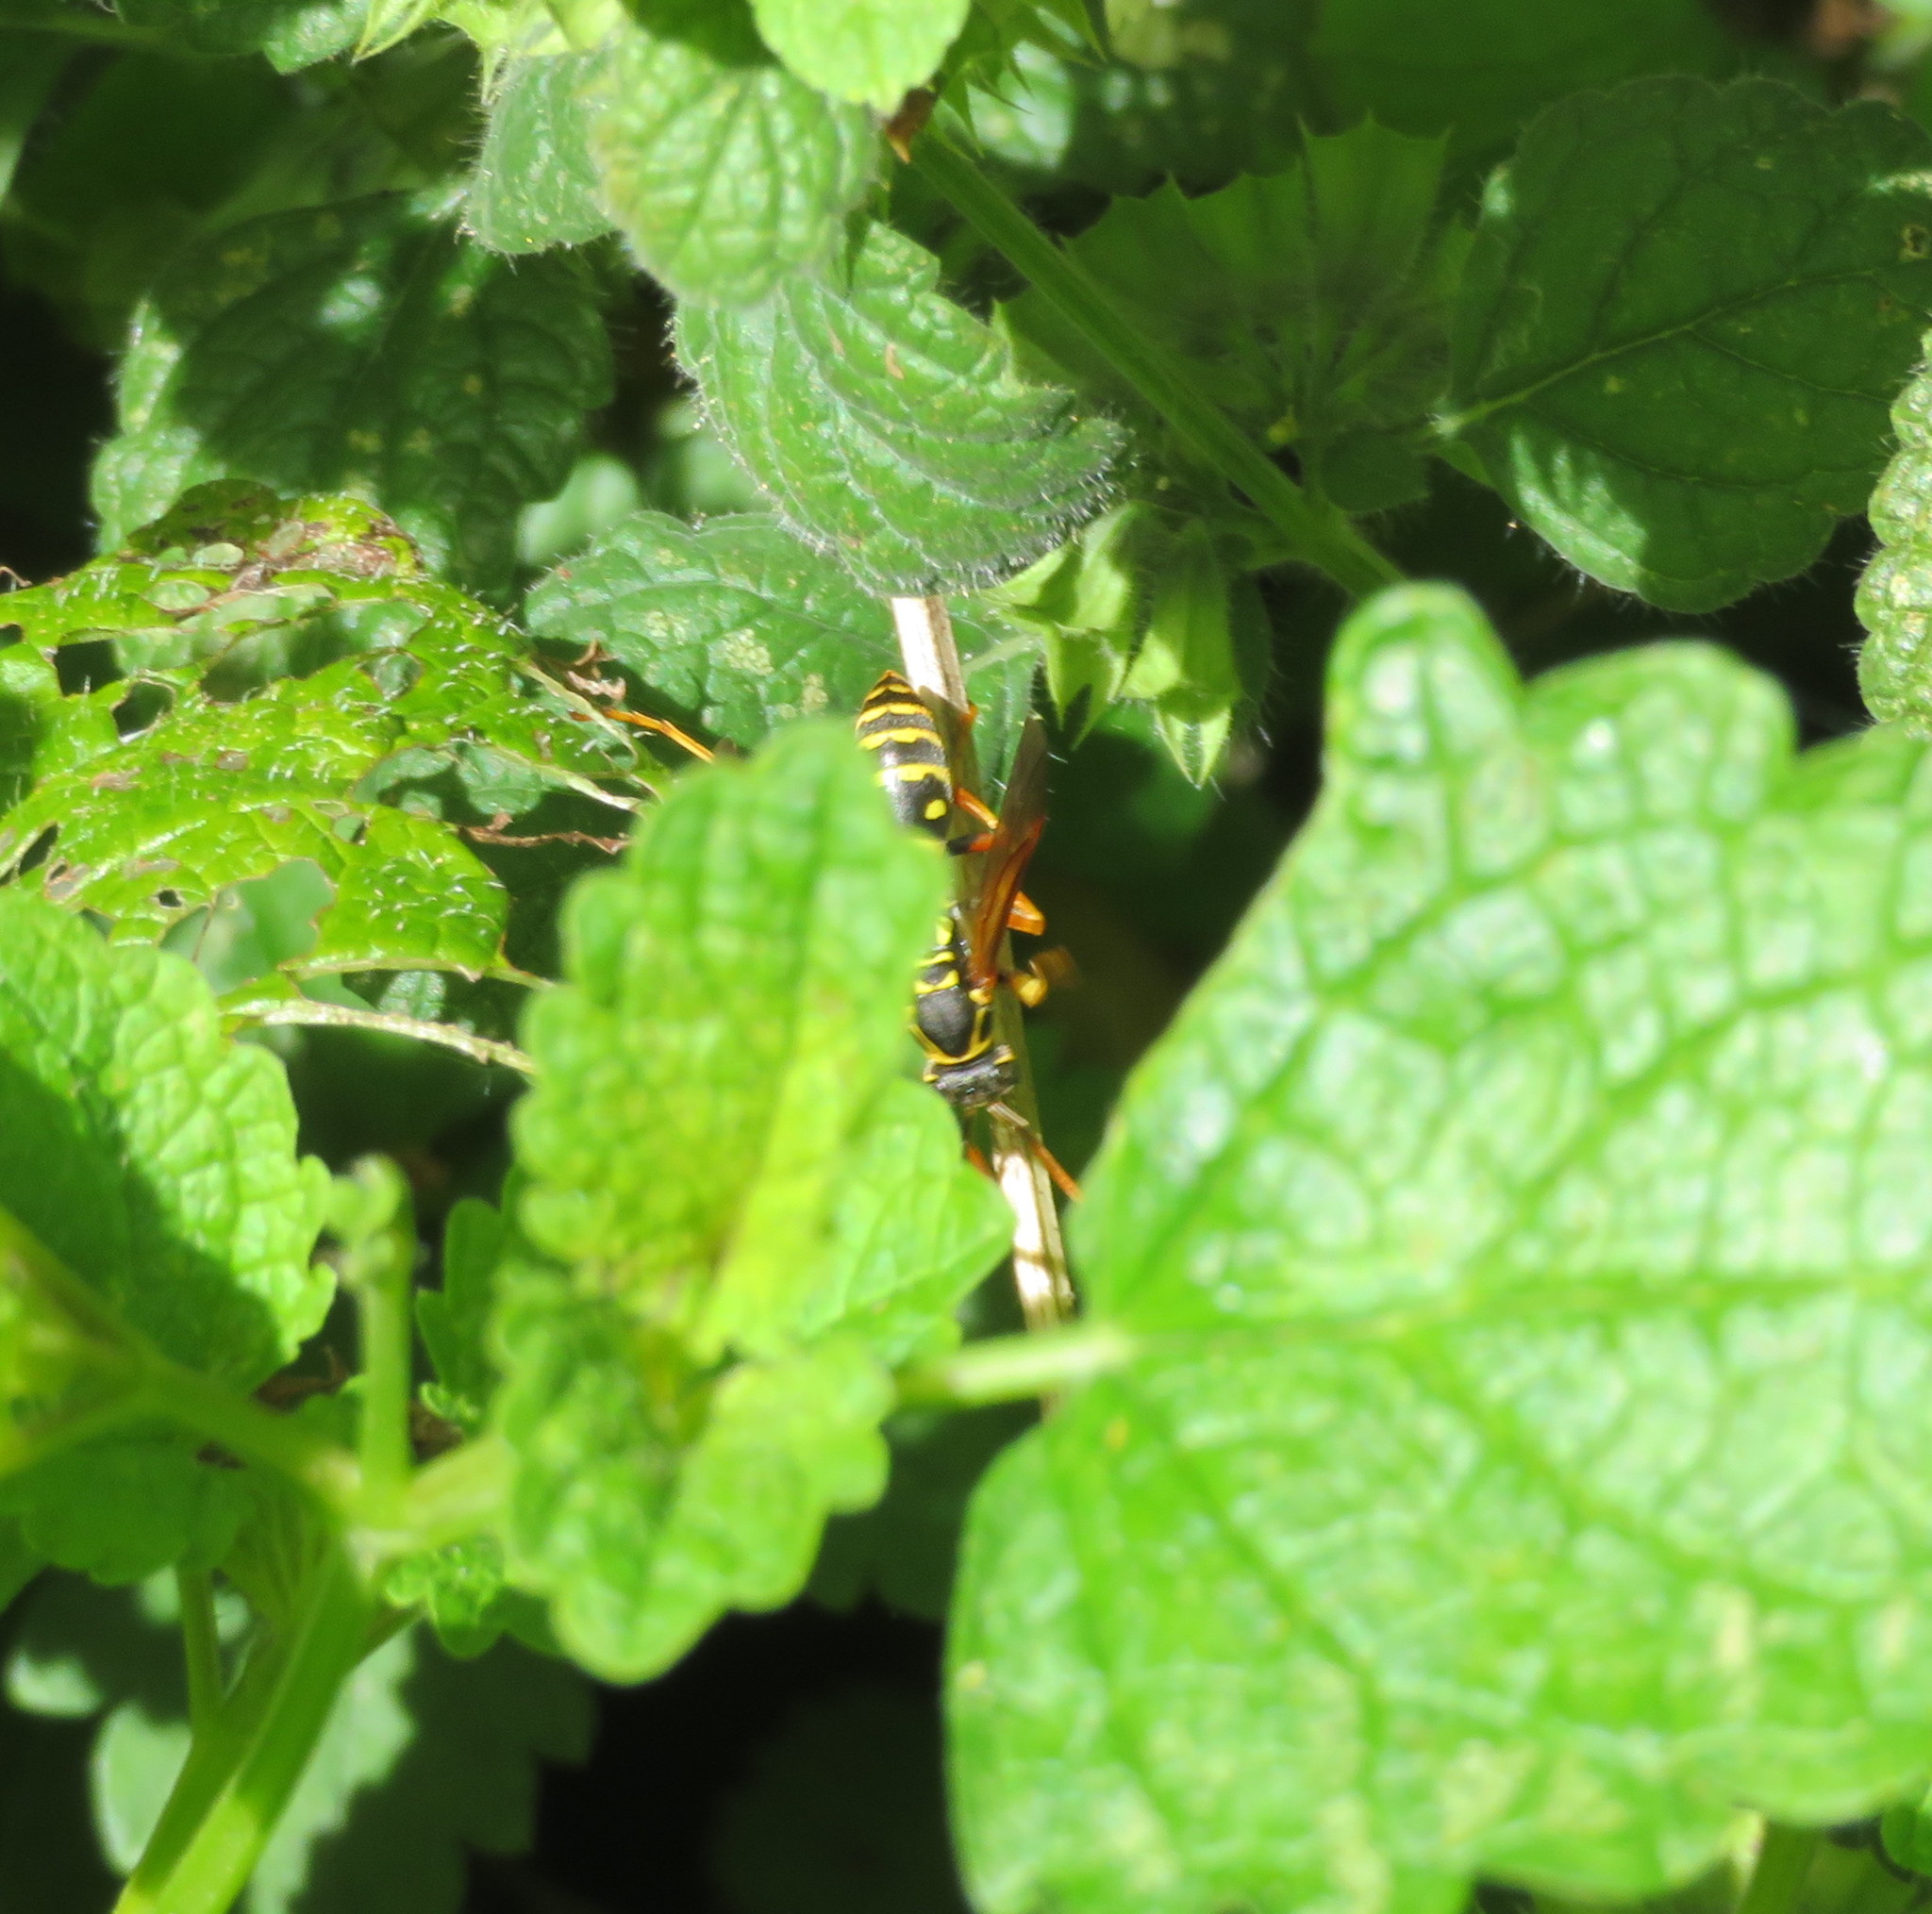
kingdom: Animalia
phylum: Arthropoda
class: Insecta
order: Hymenoptera
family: Eumenidae
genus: Polistes
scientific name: Polistes chinensis
